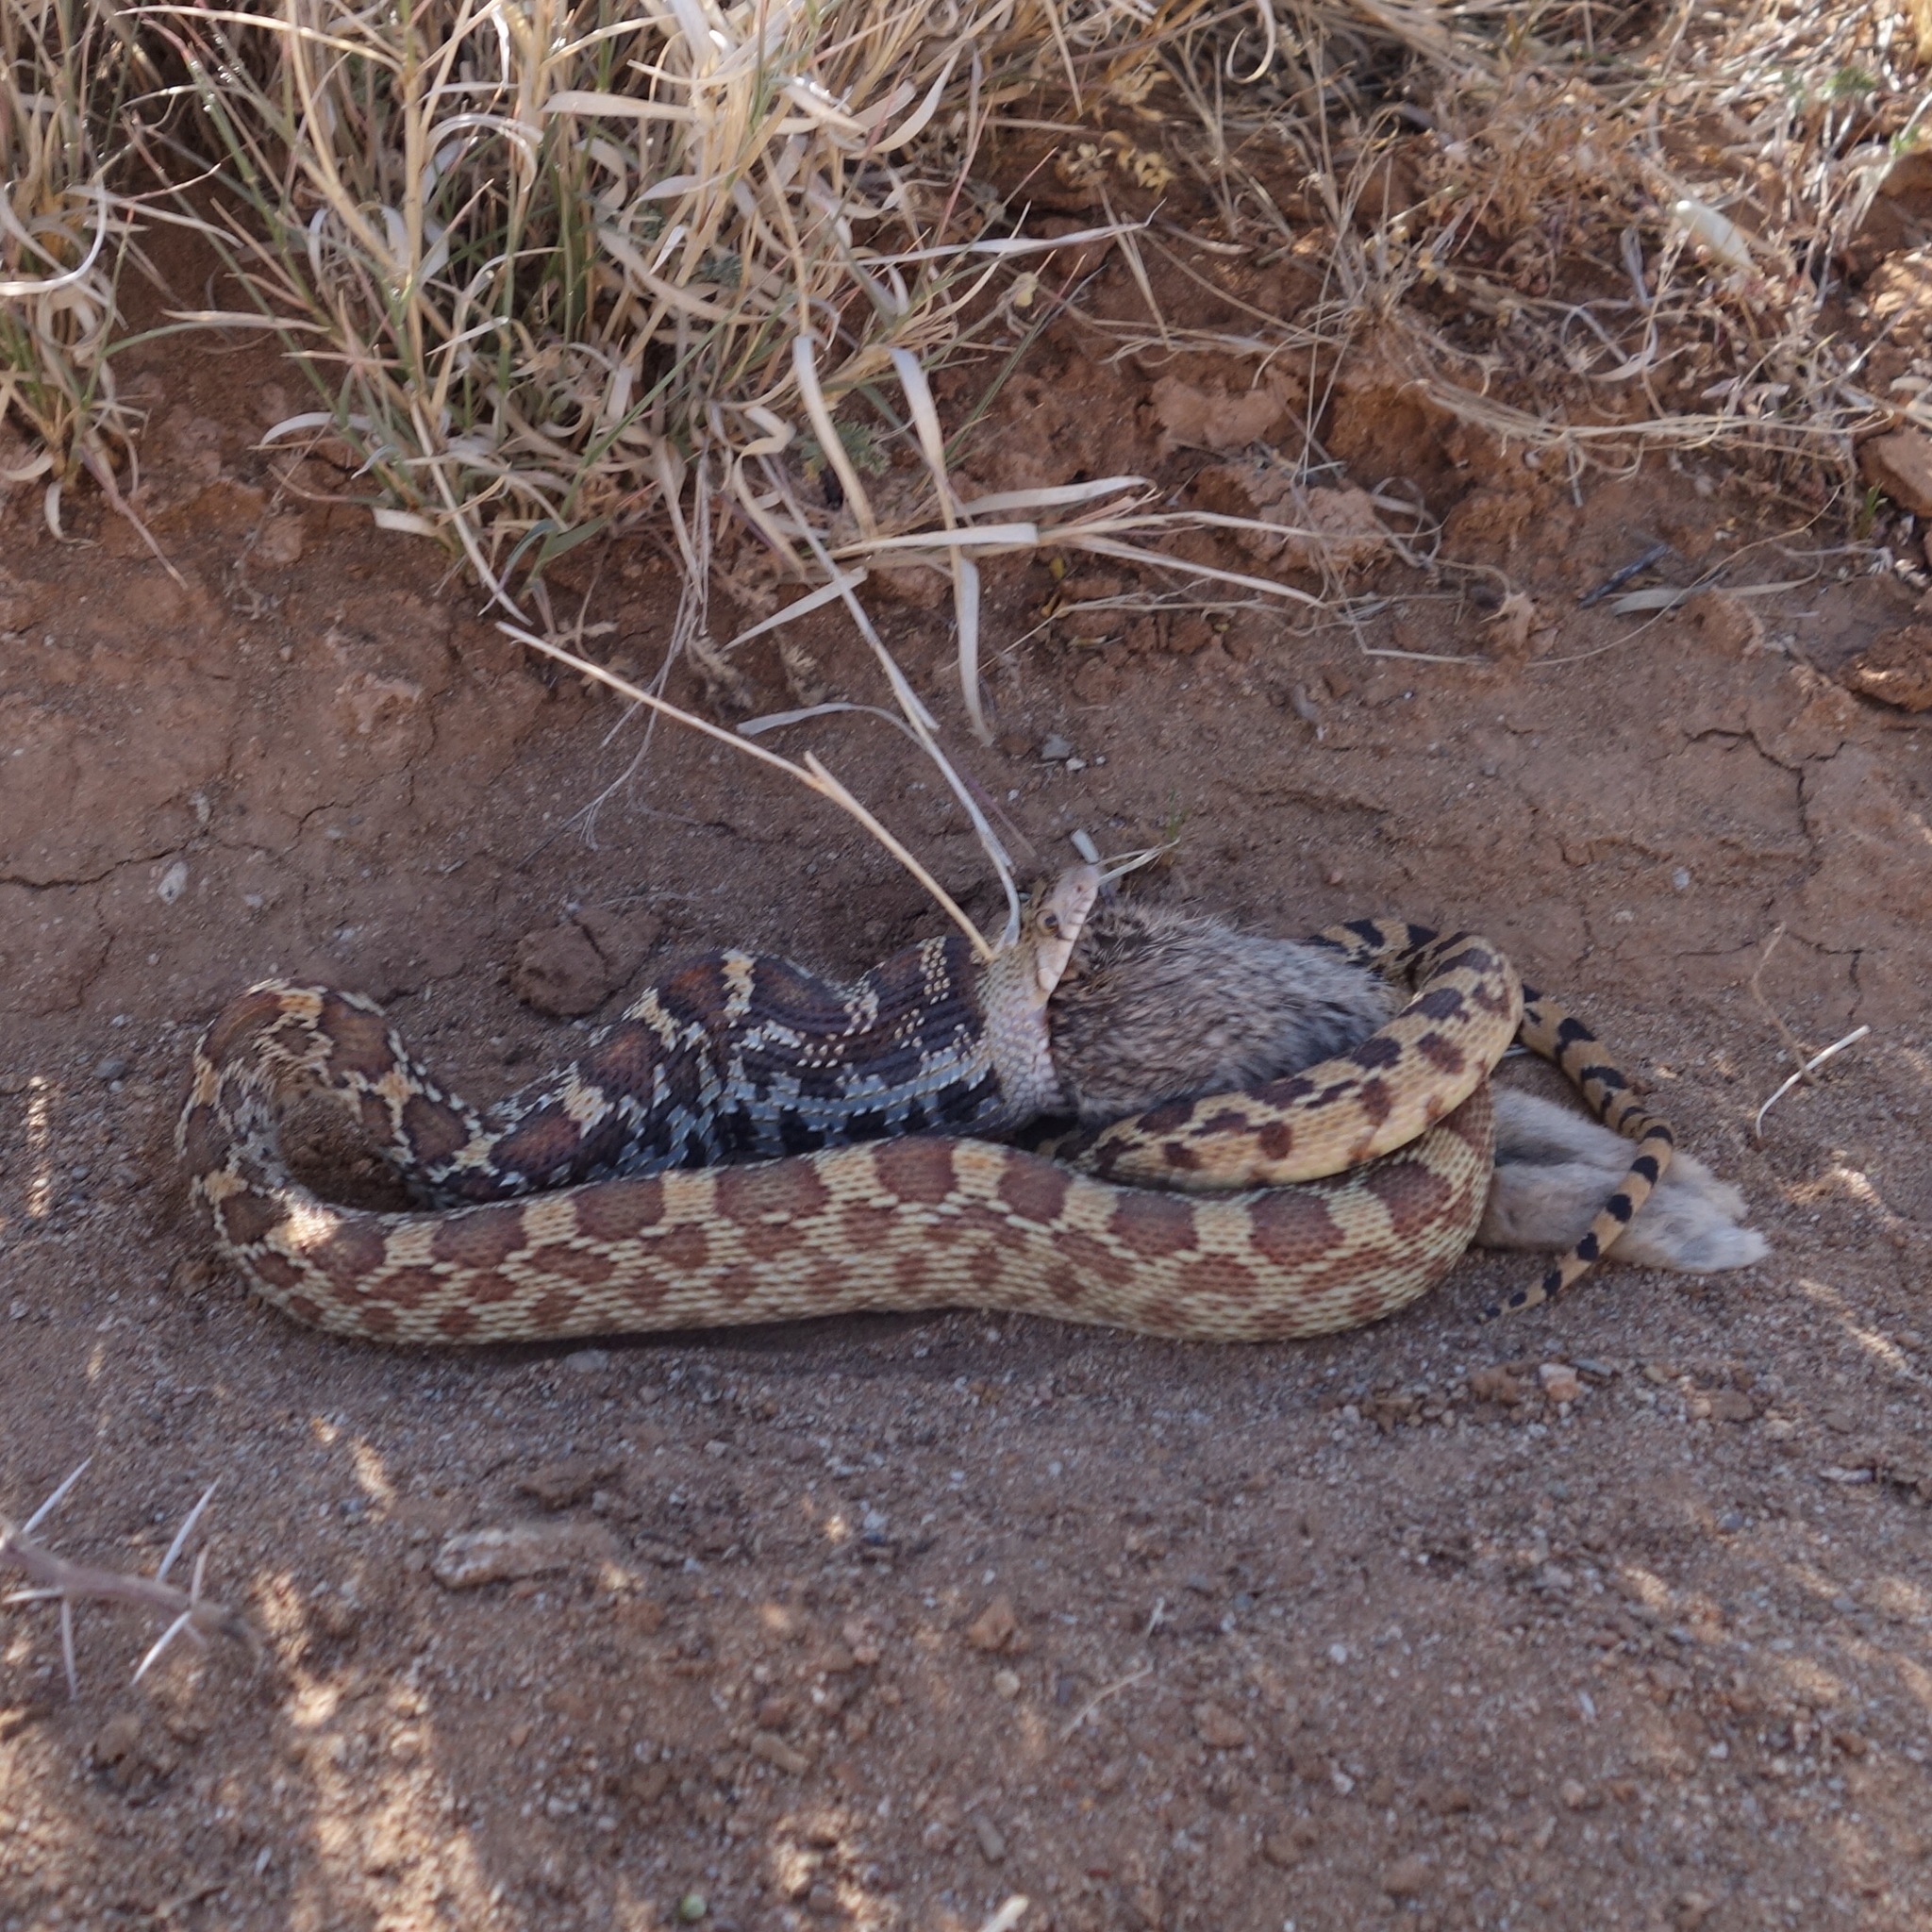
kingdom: Animalia
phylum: Chordata
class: Squamata
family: Colubridae
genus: Pituophis
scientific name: Pituophis catenifer
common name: Gopher snake
